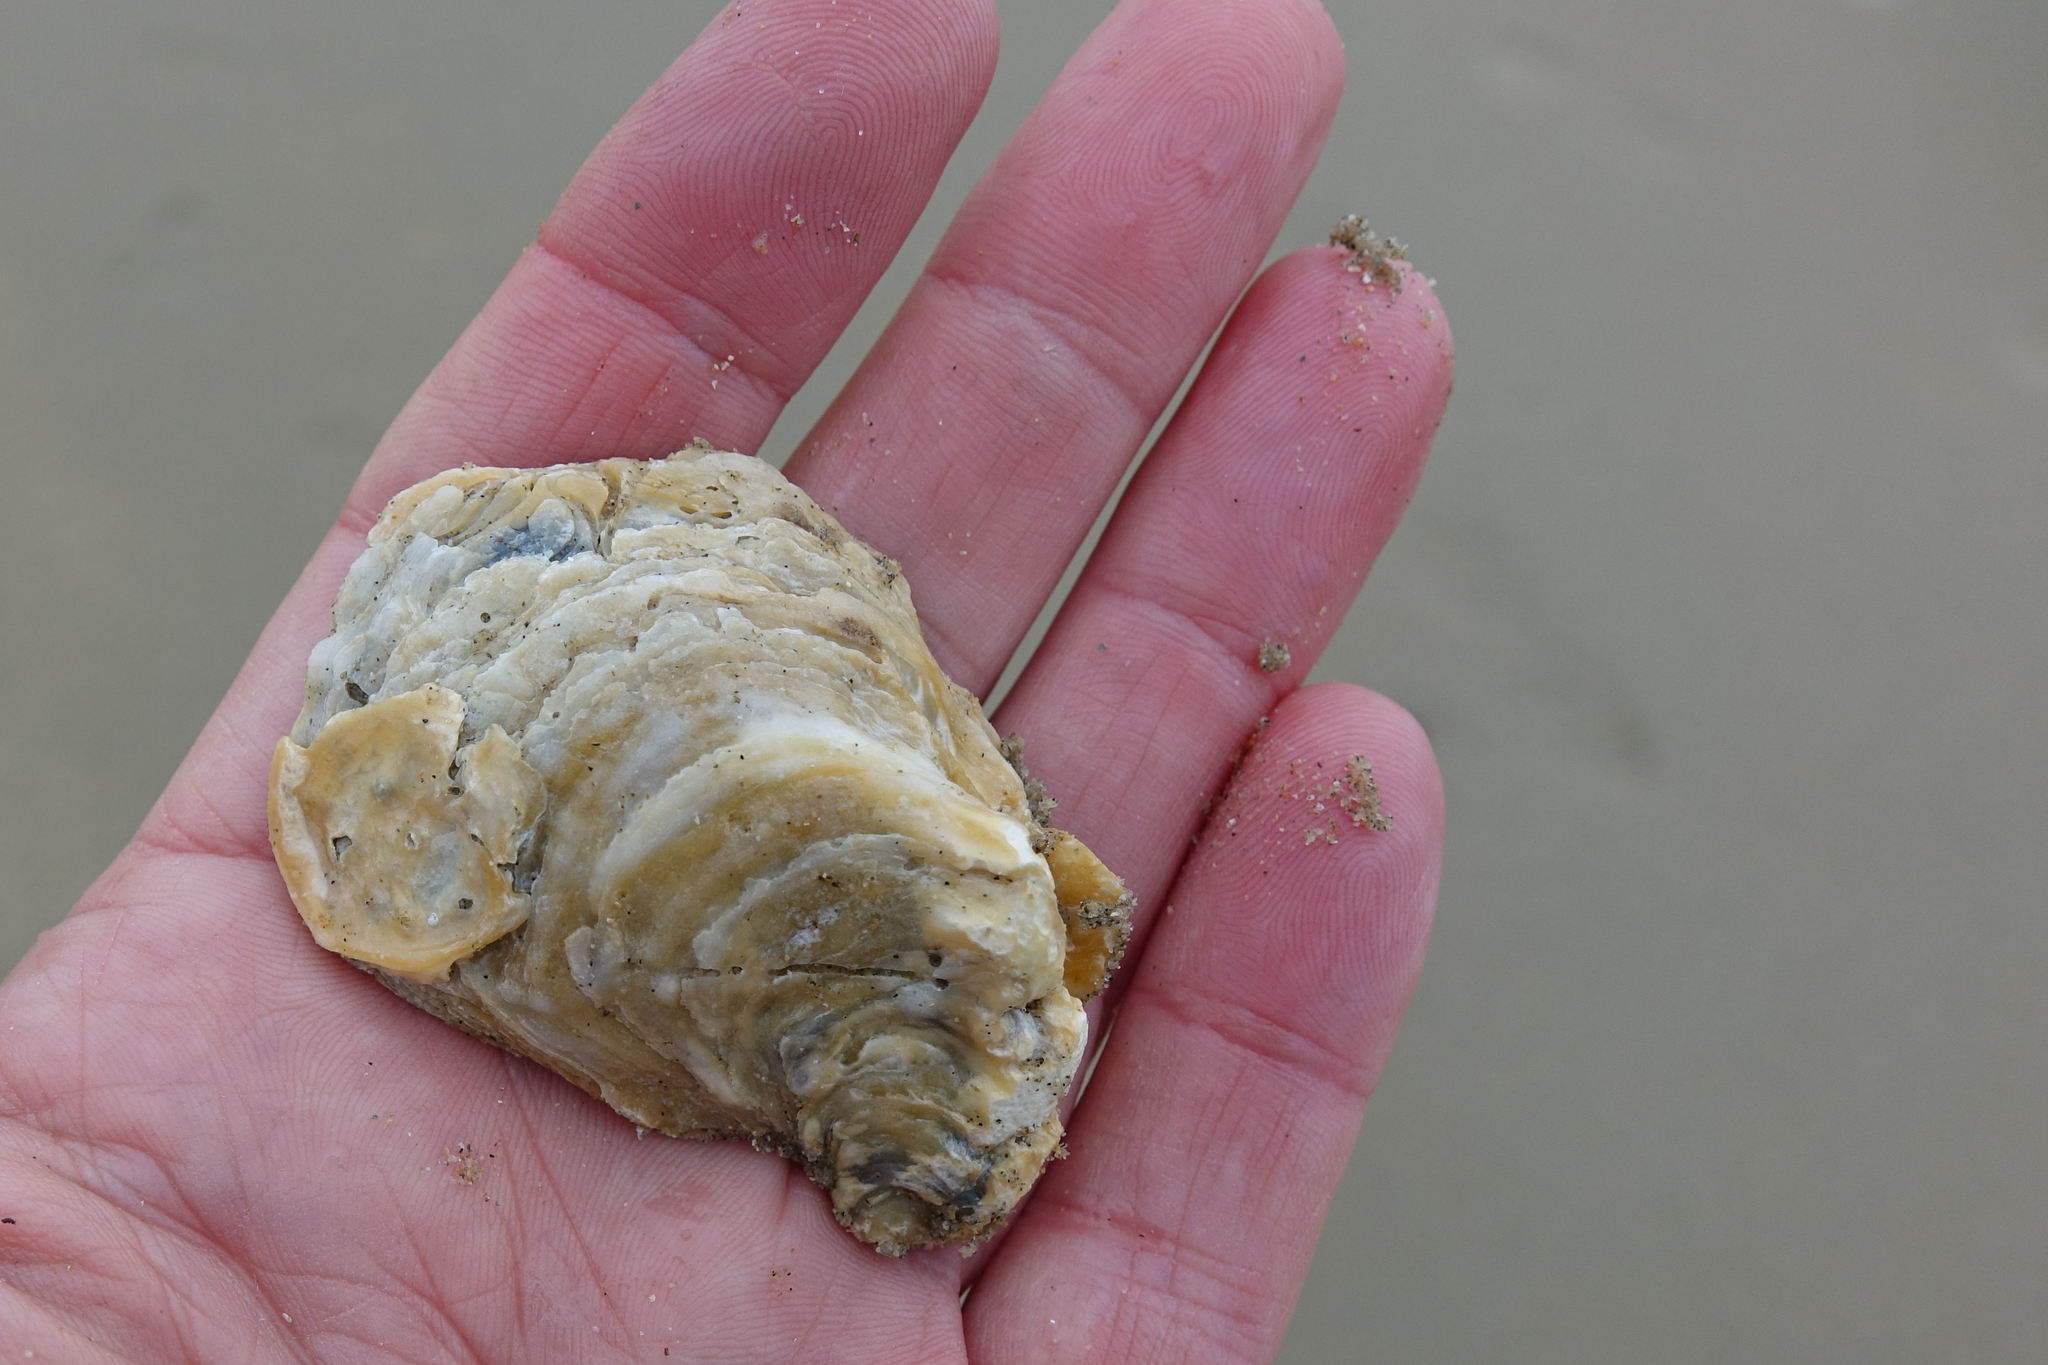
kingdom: Animalia
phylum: Mollusca
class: Bivalvia
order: Ostreida
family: Ostreidae
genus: Ostrea
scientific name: Ostrea chilensis
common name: Chilean oyster
